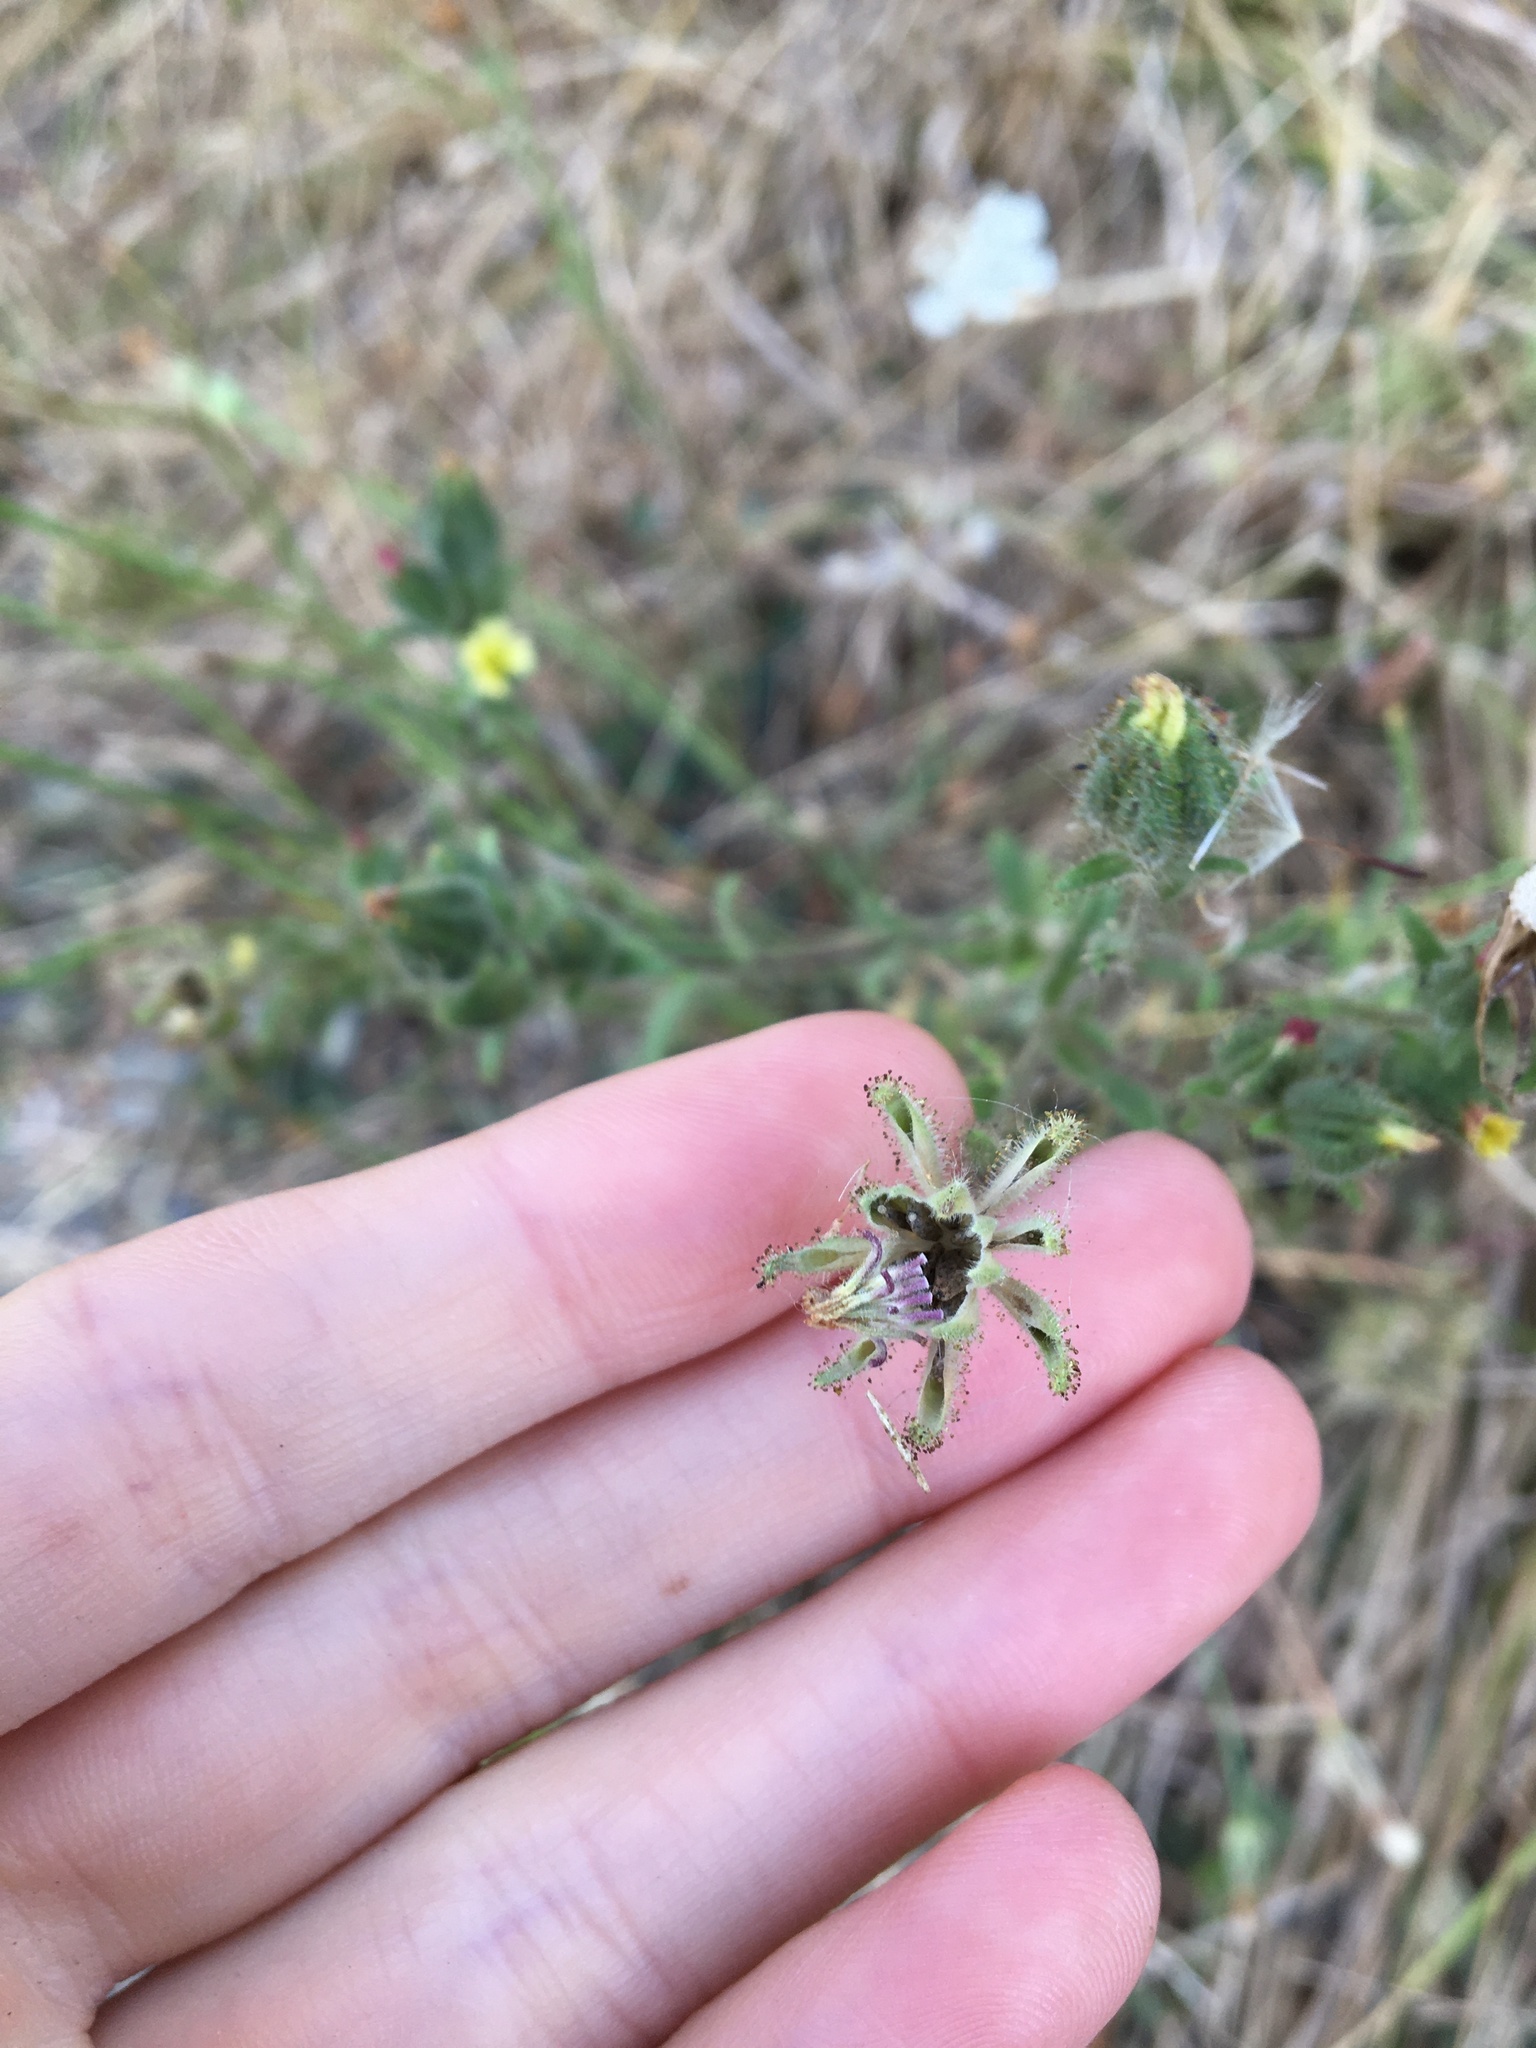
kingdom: Plantae
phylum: Tracheophyta
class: Magnoliopsida
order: Asterales
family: Asteraceae
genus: Madia
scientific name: Madia gracilis
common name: Grassy tarweed
